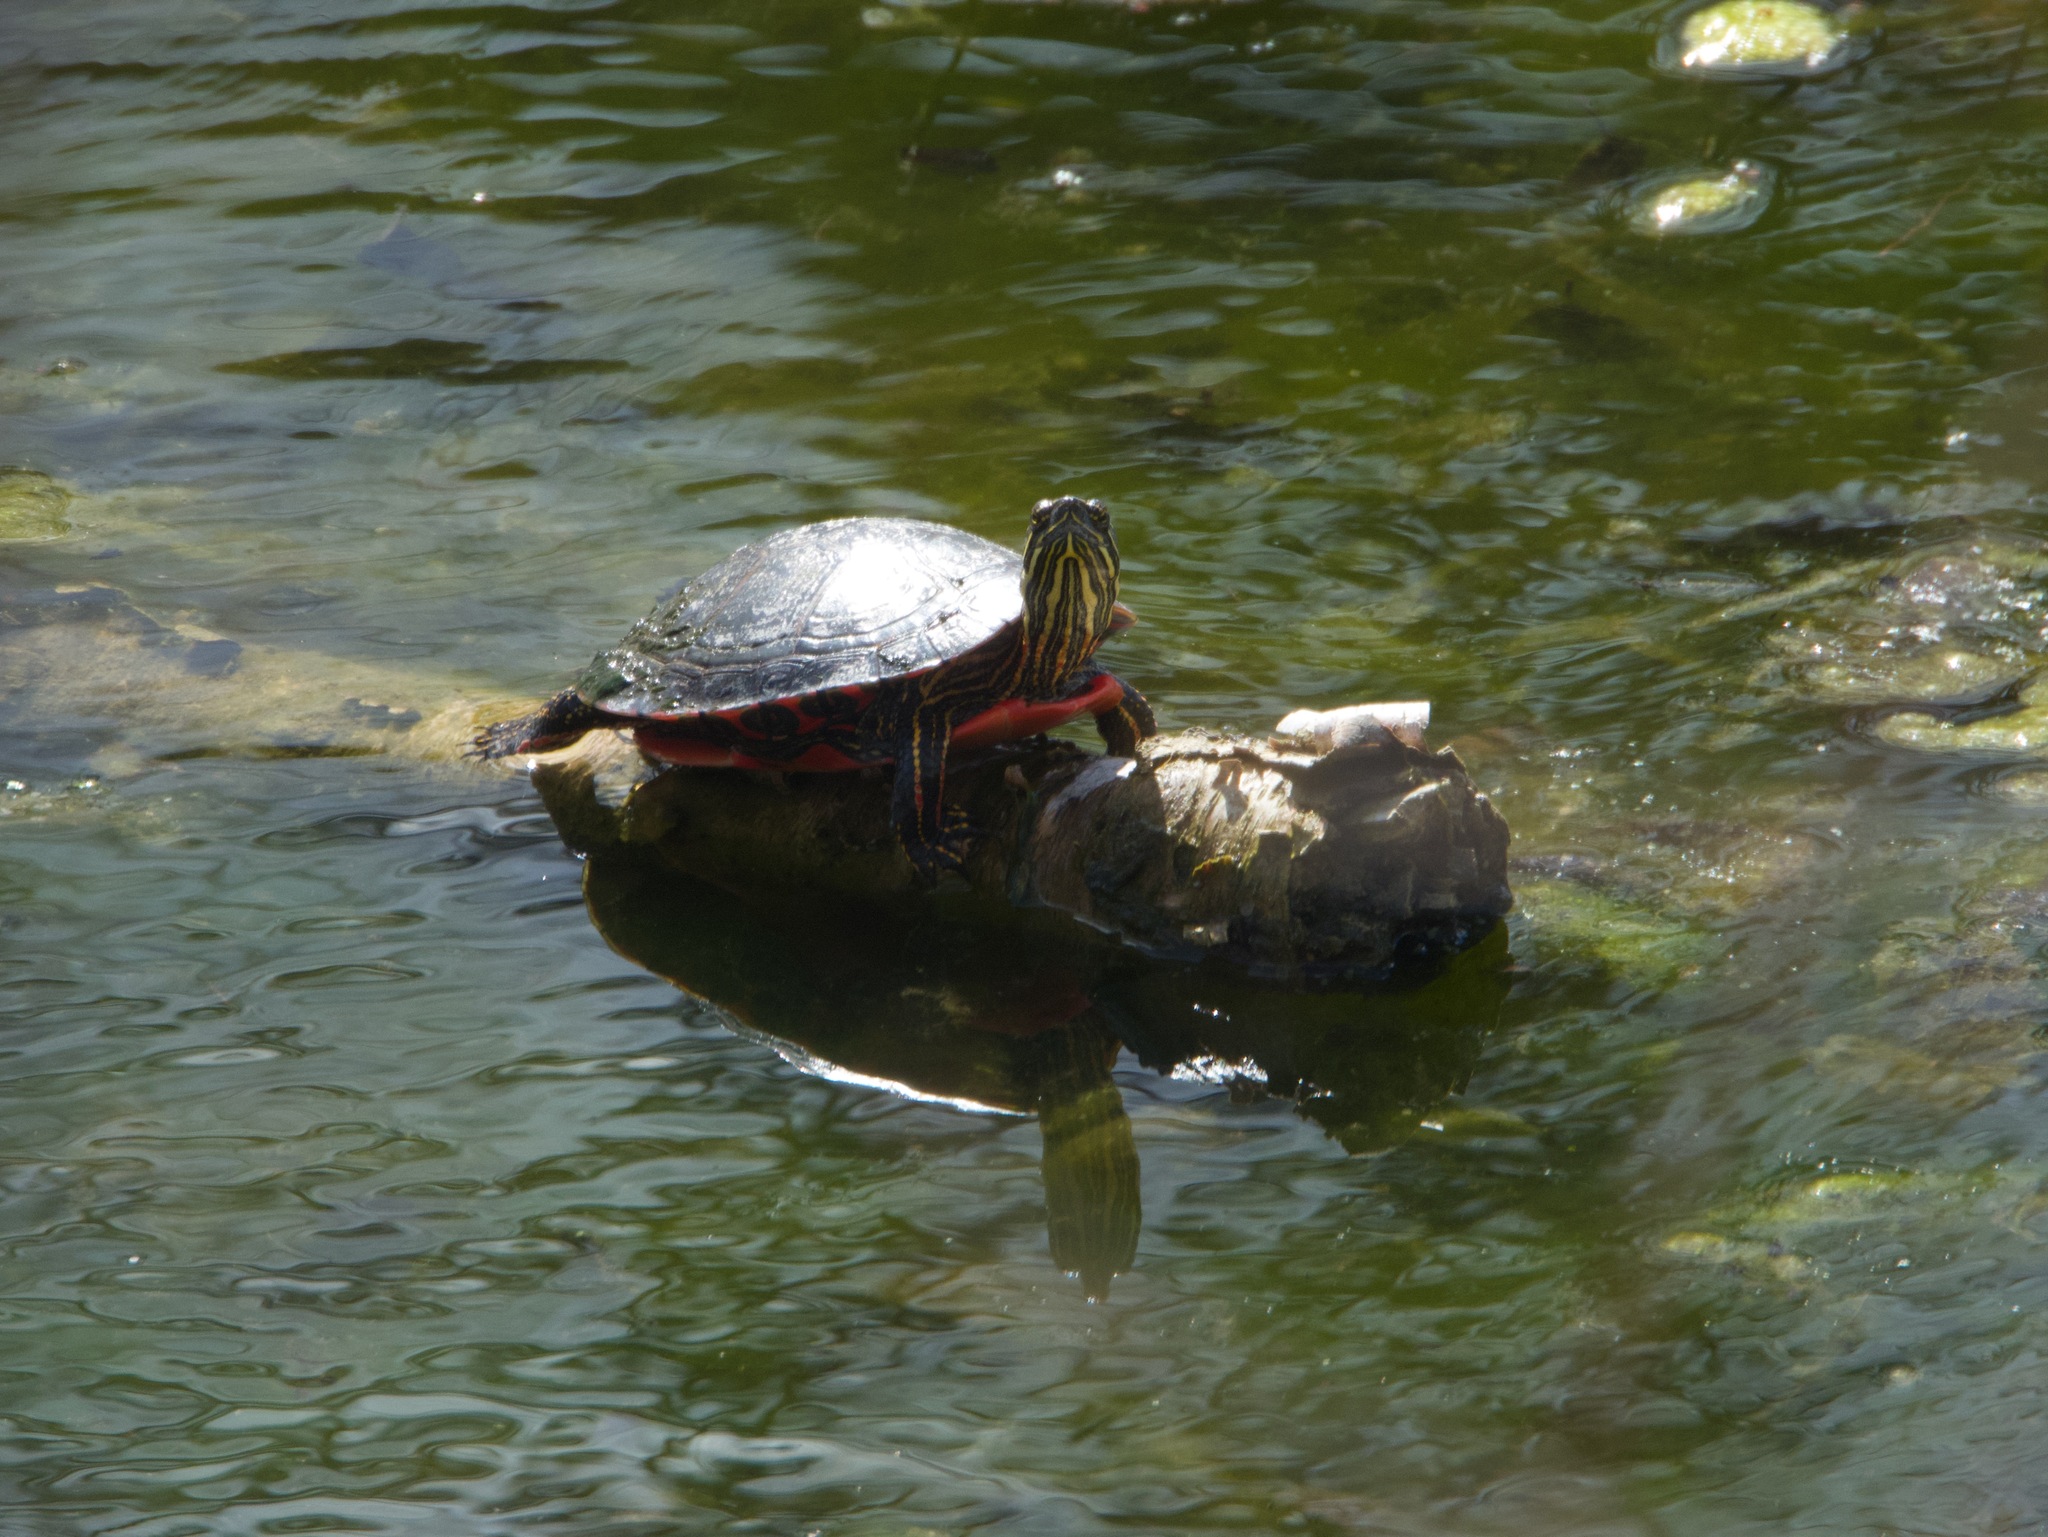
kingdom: Animalia
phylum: Chordata
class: Testudines
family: Emydidae
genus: Chrysemys
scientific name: Chrysemys picta
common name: Painted turtle
